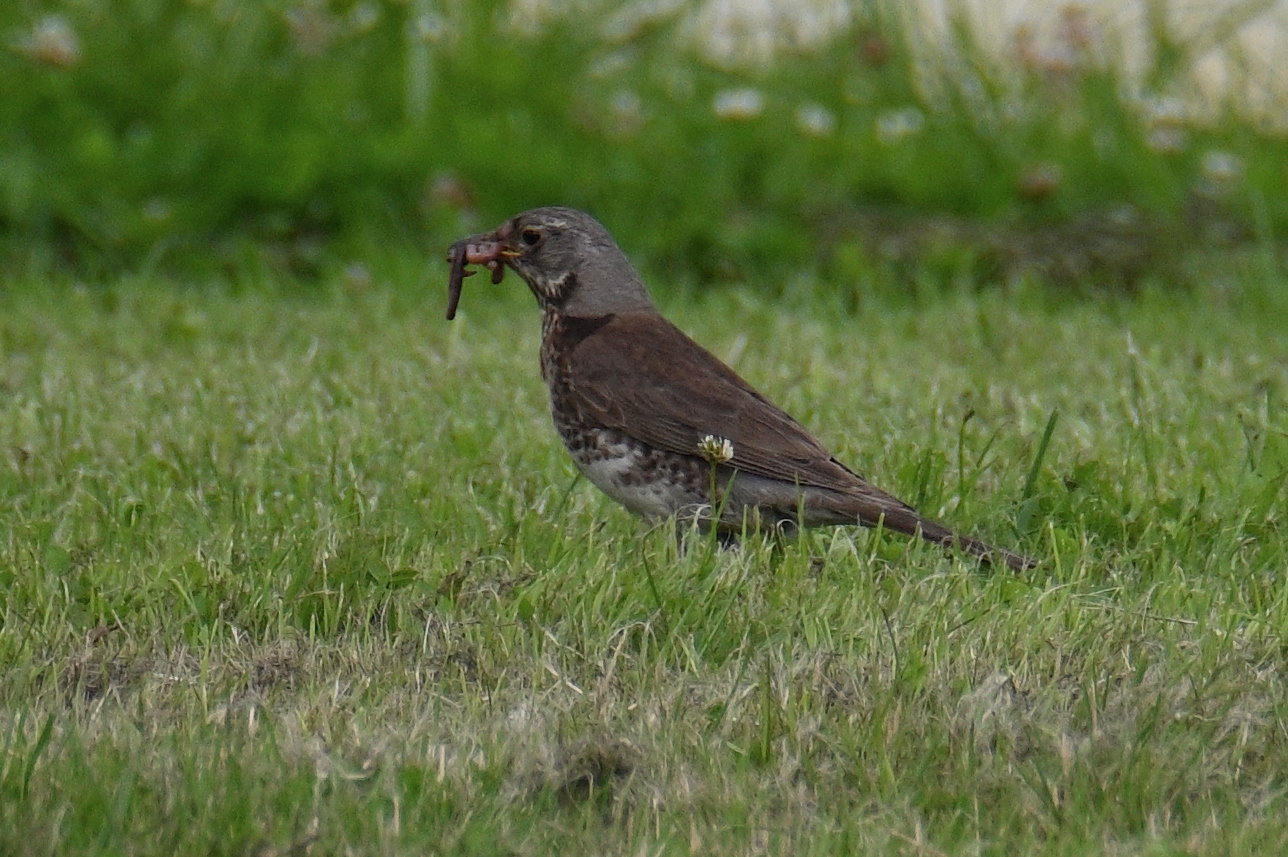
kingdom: Animalia
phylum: Chordata
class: Aves
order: Passeriformes
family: Turdidae
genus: Turdus
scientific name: Turdus pilaris
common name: Fieldfare
